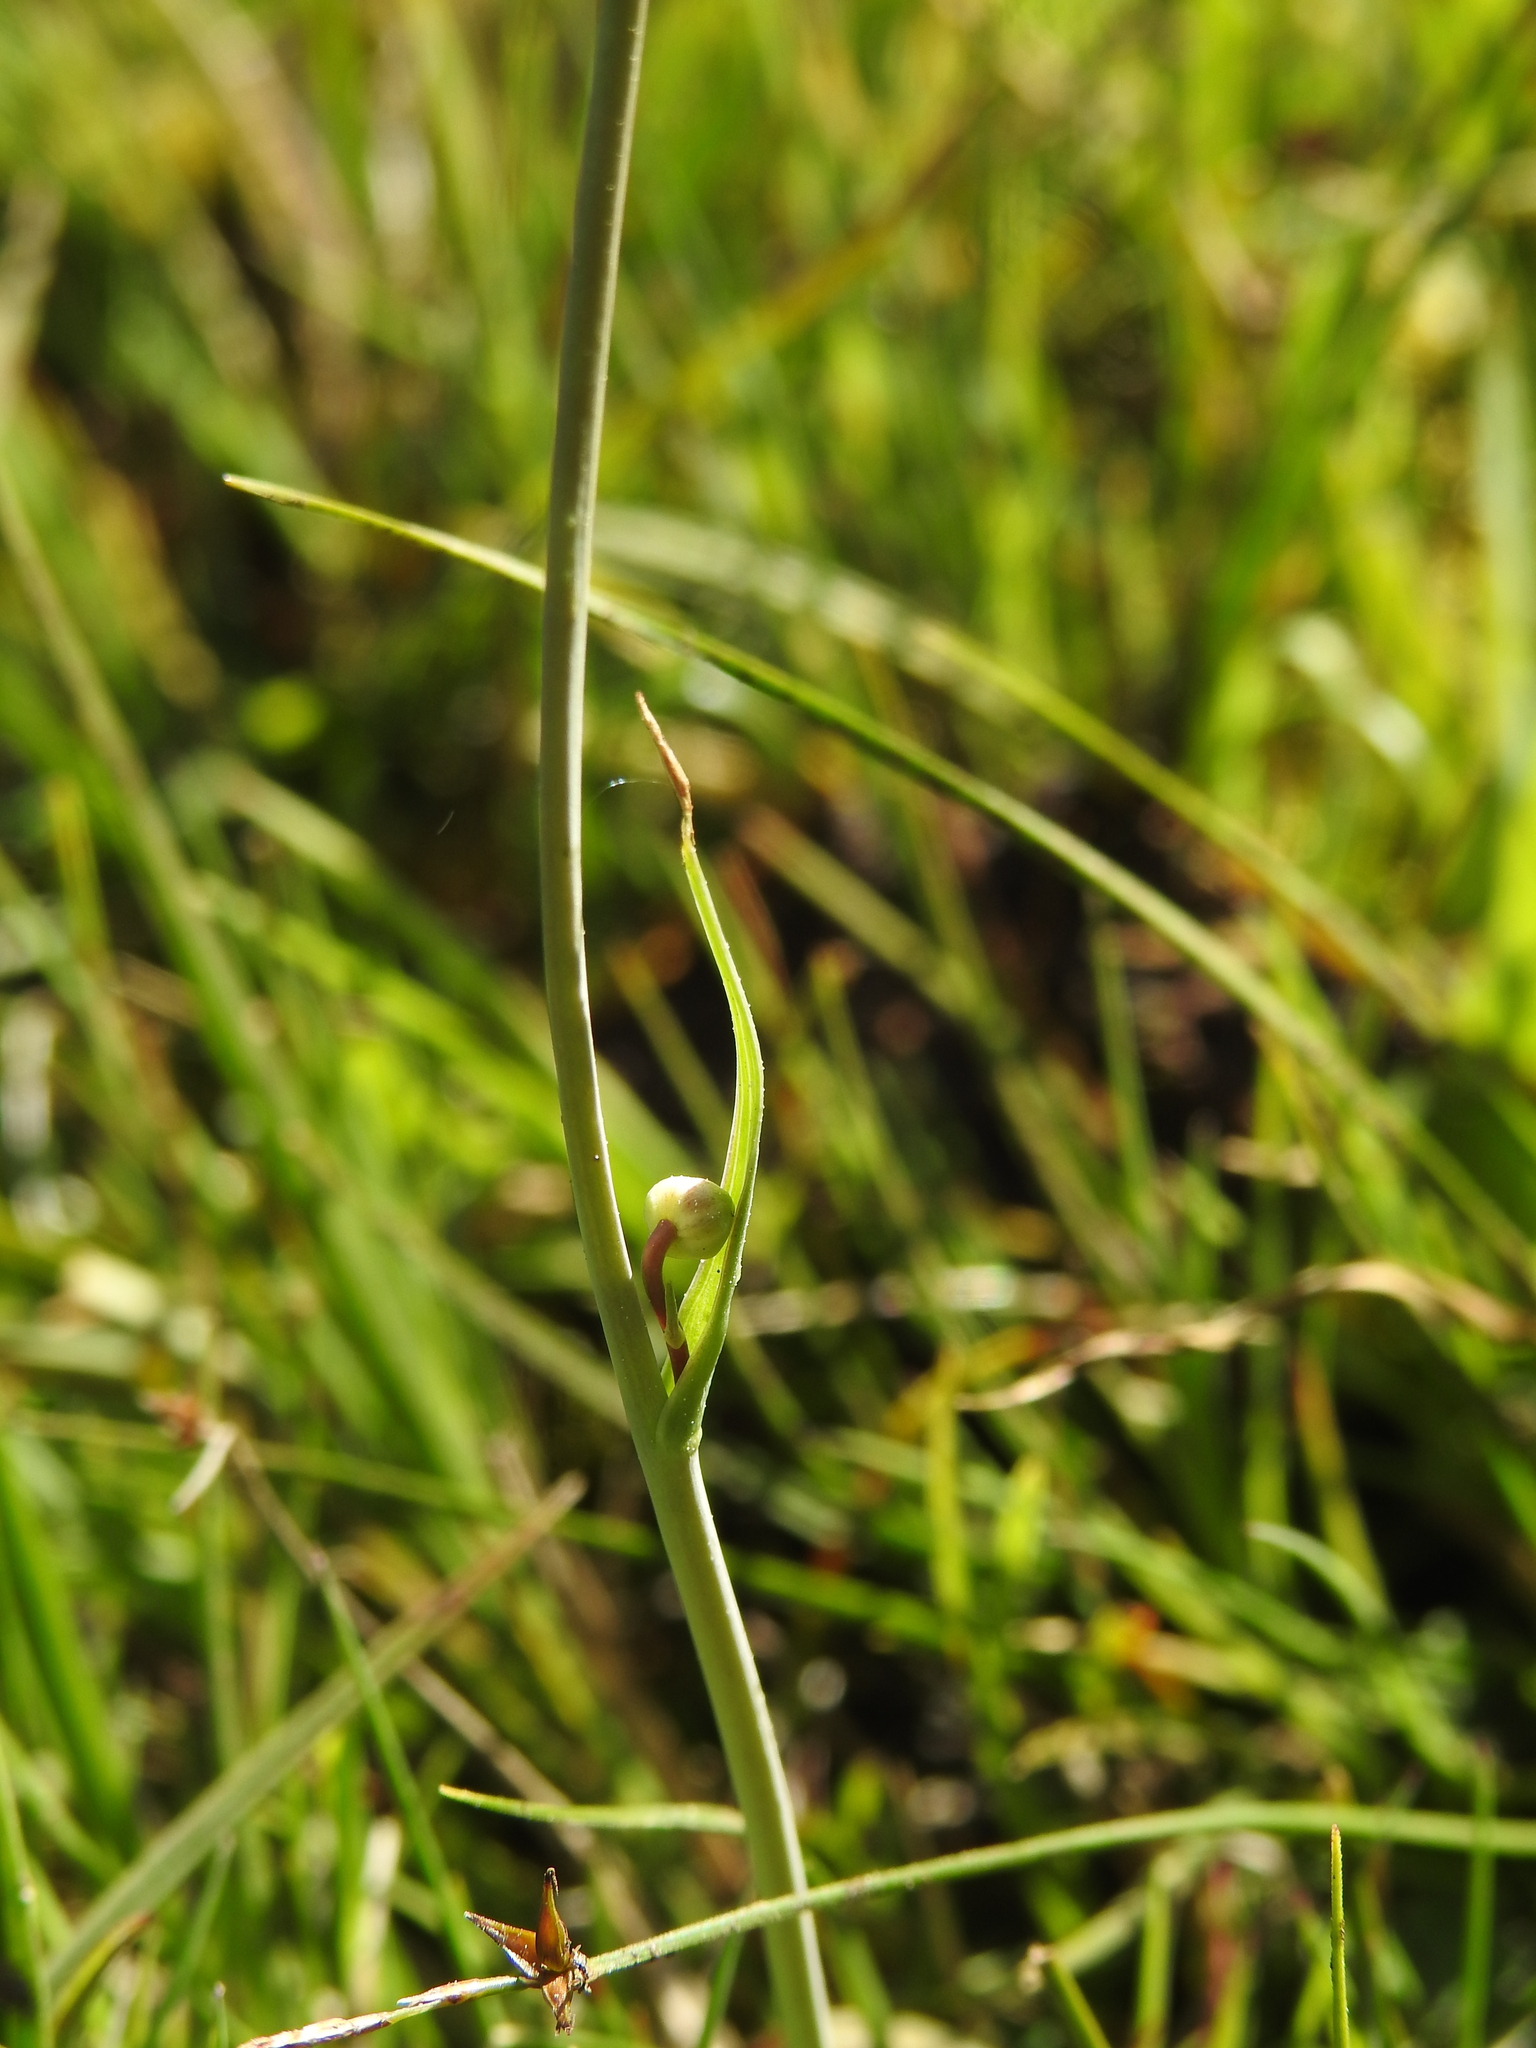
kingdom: Plantae
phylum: Tracheophyta
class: Magnoliopsida
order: Ranunculales
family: Ranunculaceae
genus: Ranunculus
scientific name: Ranunculus pyrenaeus
